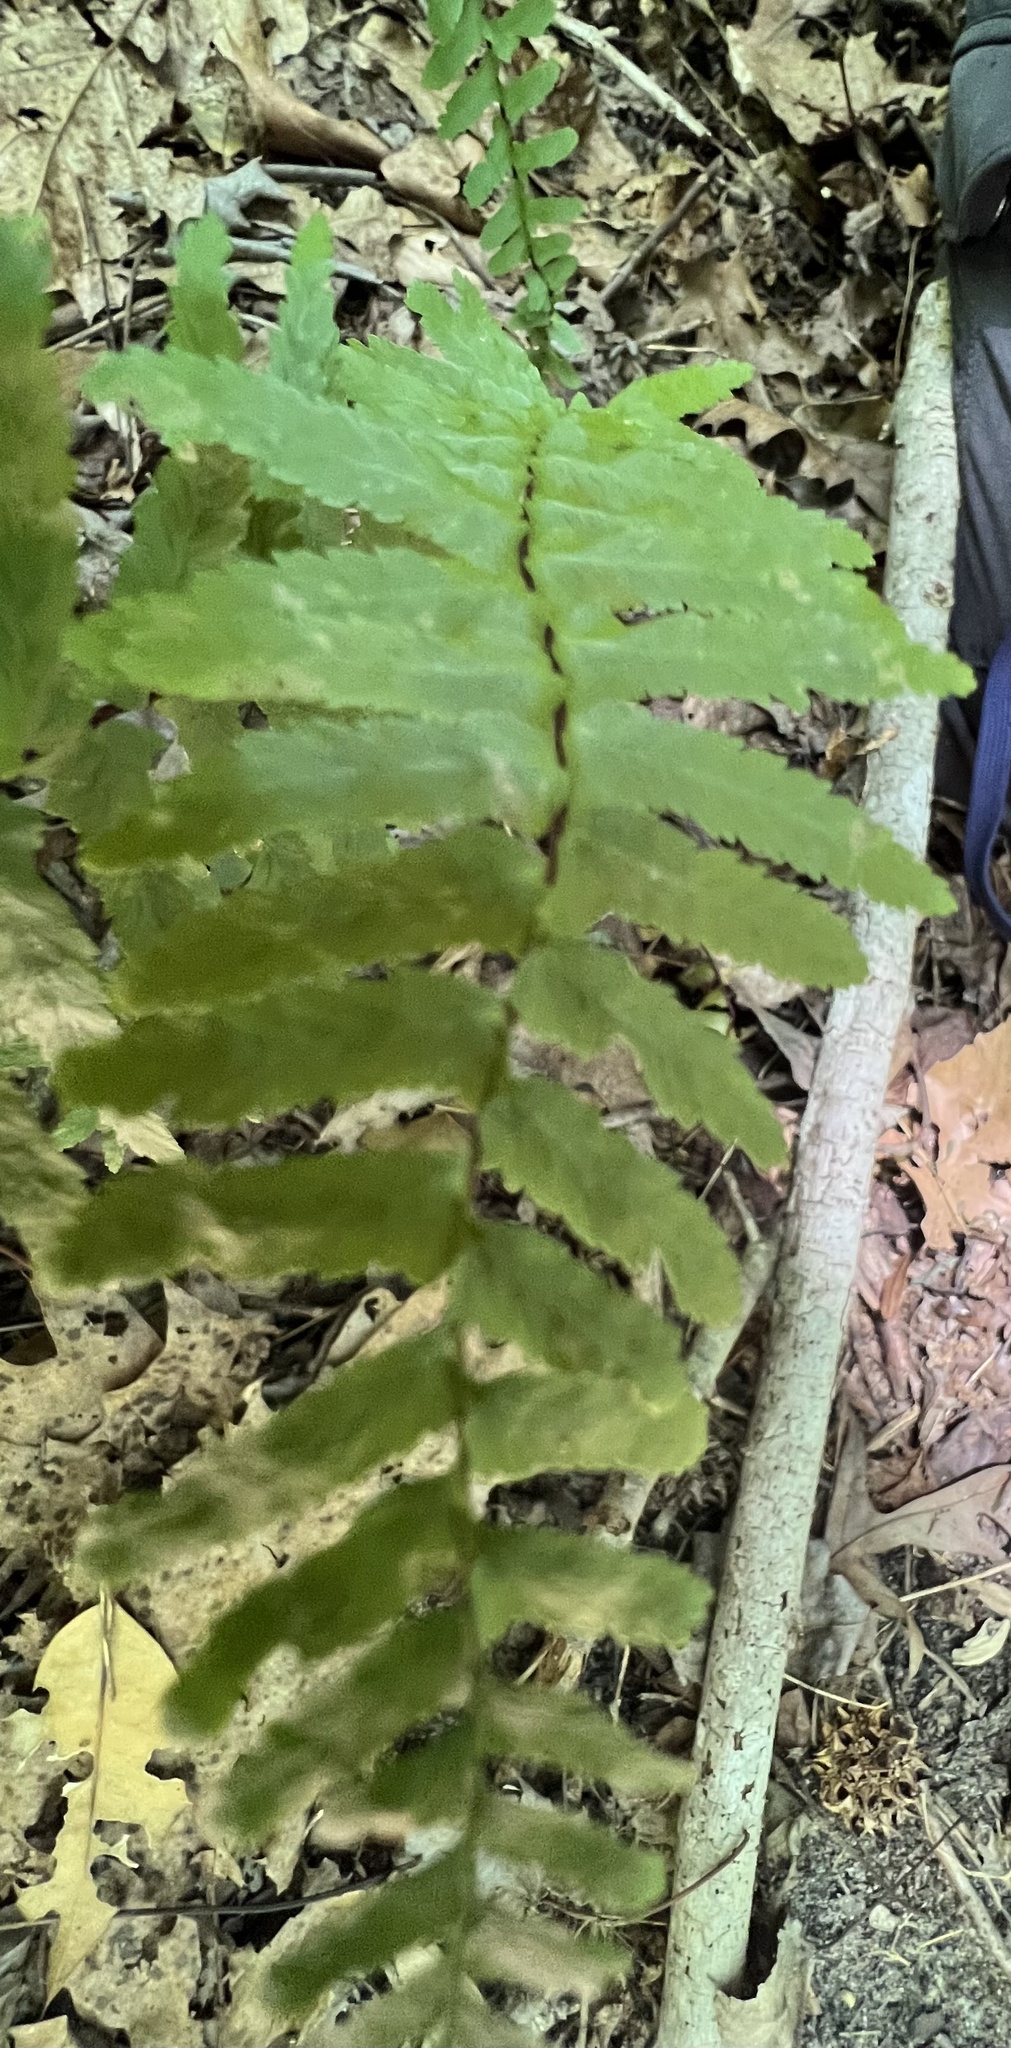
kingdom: Plantae
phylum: Tracheophyta
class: Polypodiopsida
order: Polypodiales
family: Aspleniaceae
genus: Asplenium
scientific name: Asplenium platyneuron
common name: Ebony spleenwort
